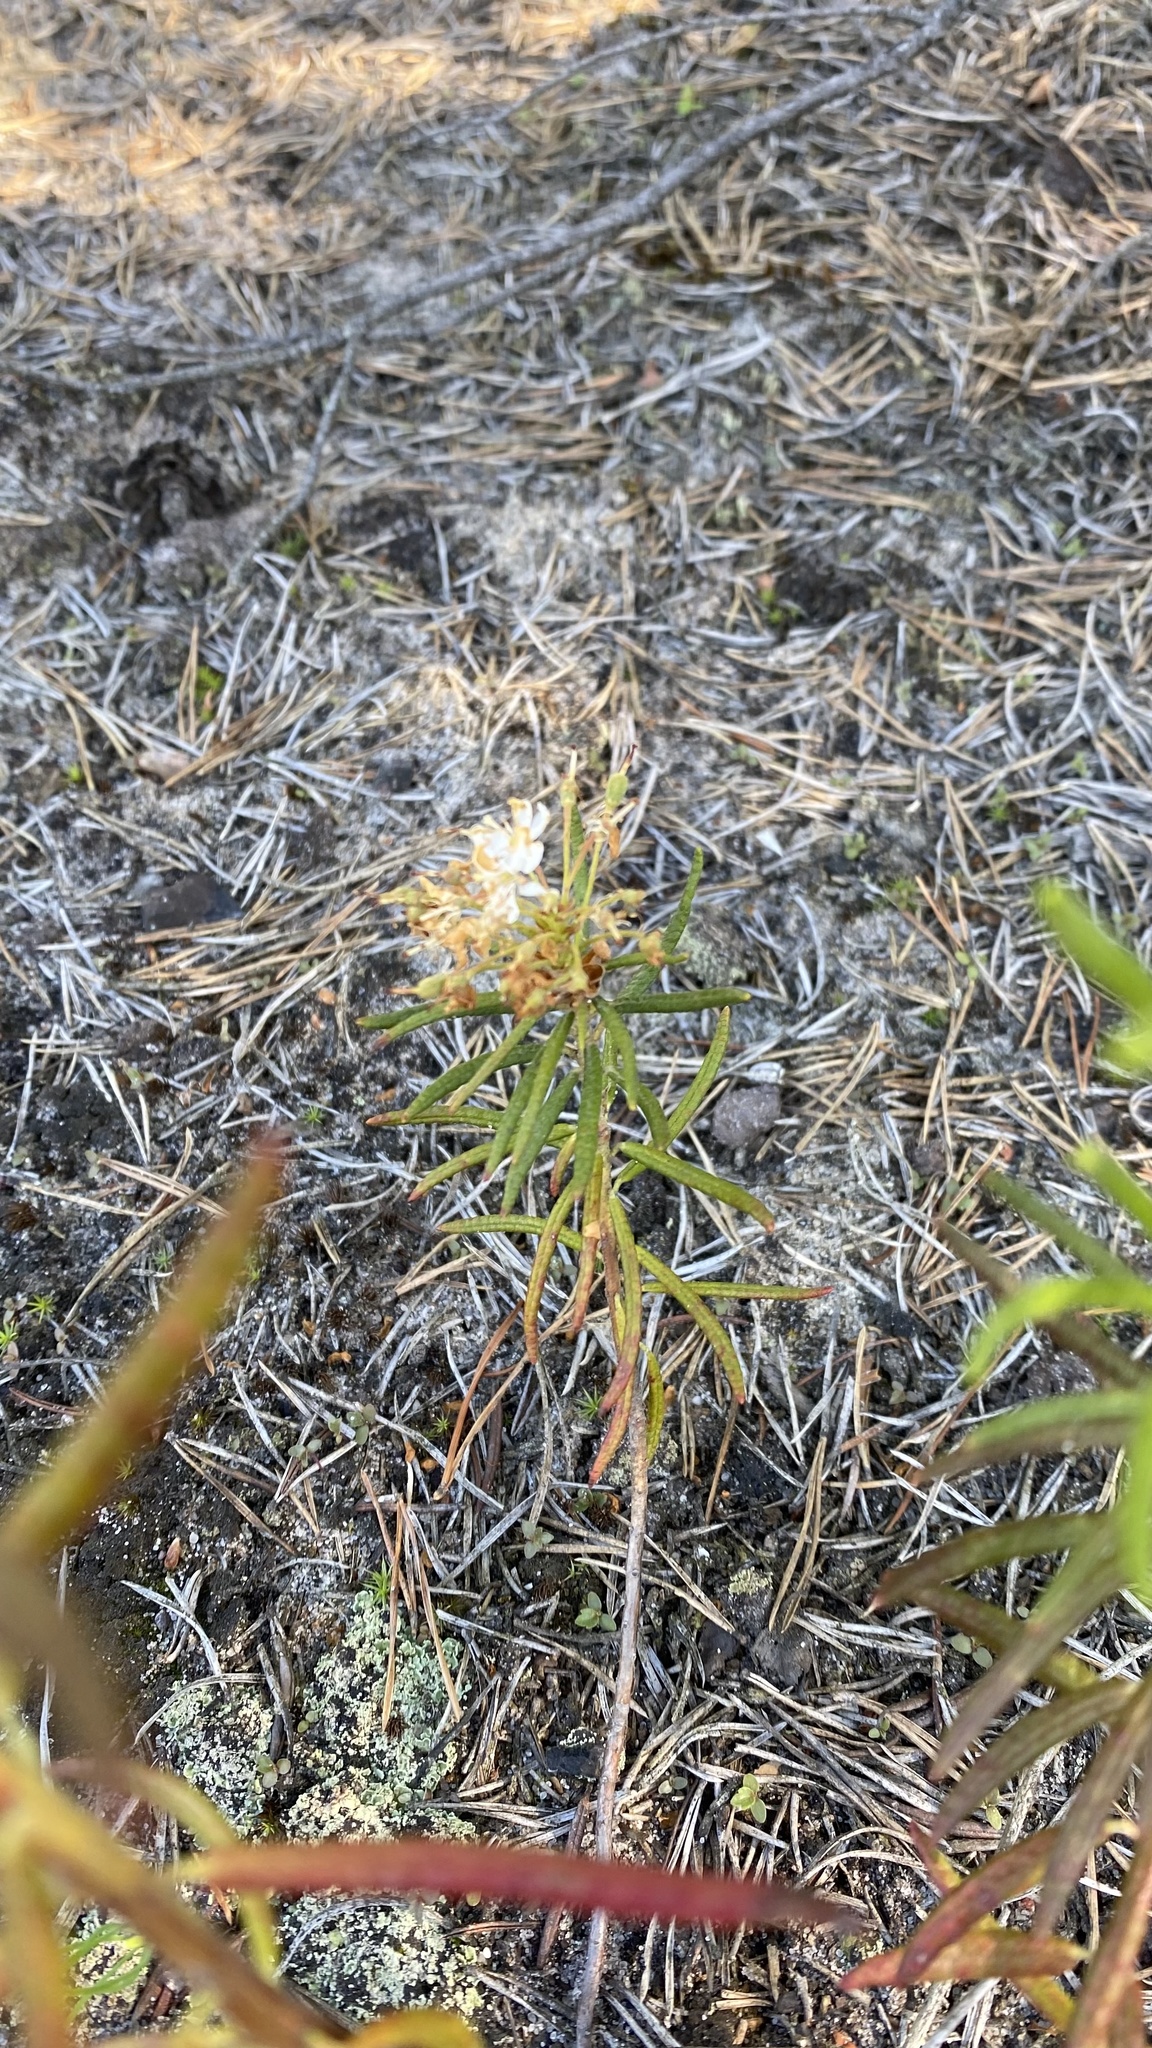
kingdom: Plantae
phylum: Tracheophyta
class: Magnoliopsida
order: Ericales
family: Ericaceae
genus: Rhododendron
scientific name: Rhododendron tomentosum
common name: Marsh labrador tea
